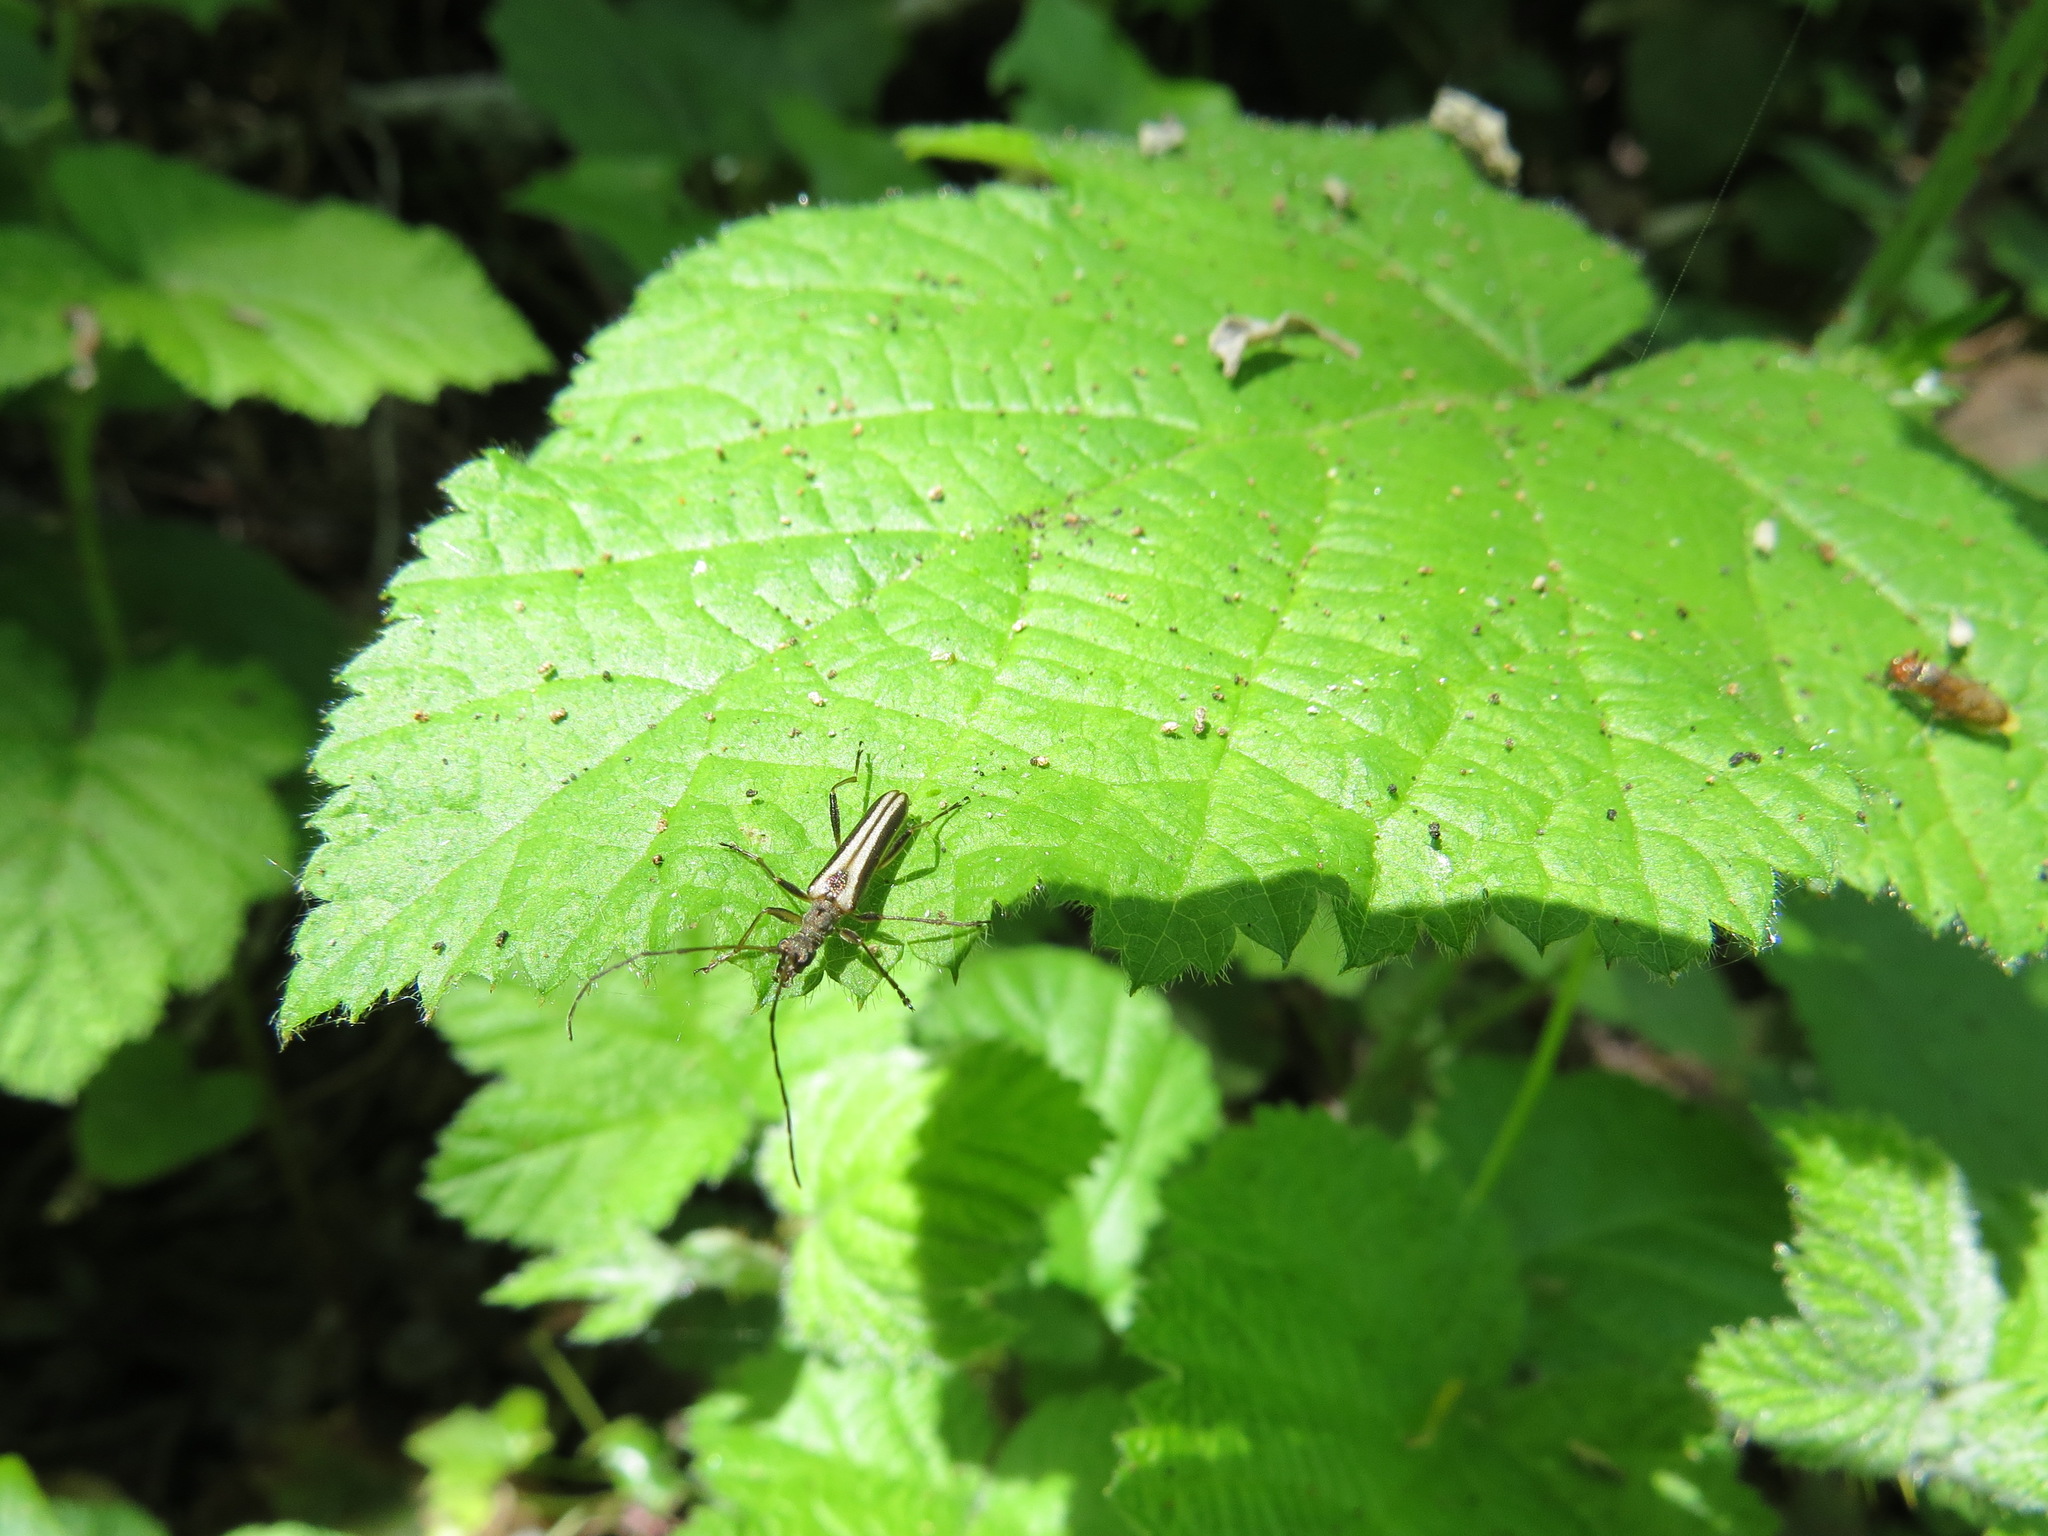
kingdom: Animalia
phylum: Arthropoda
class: Insecta
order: Coleoptera
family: Cerambycidae
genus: Leptalia
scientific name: Leptalia macilenta
